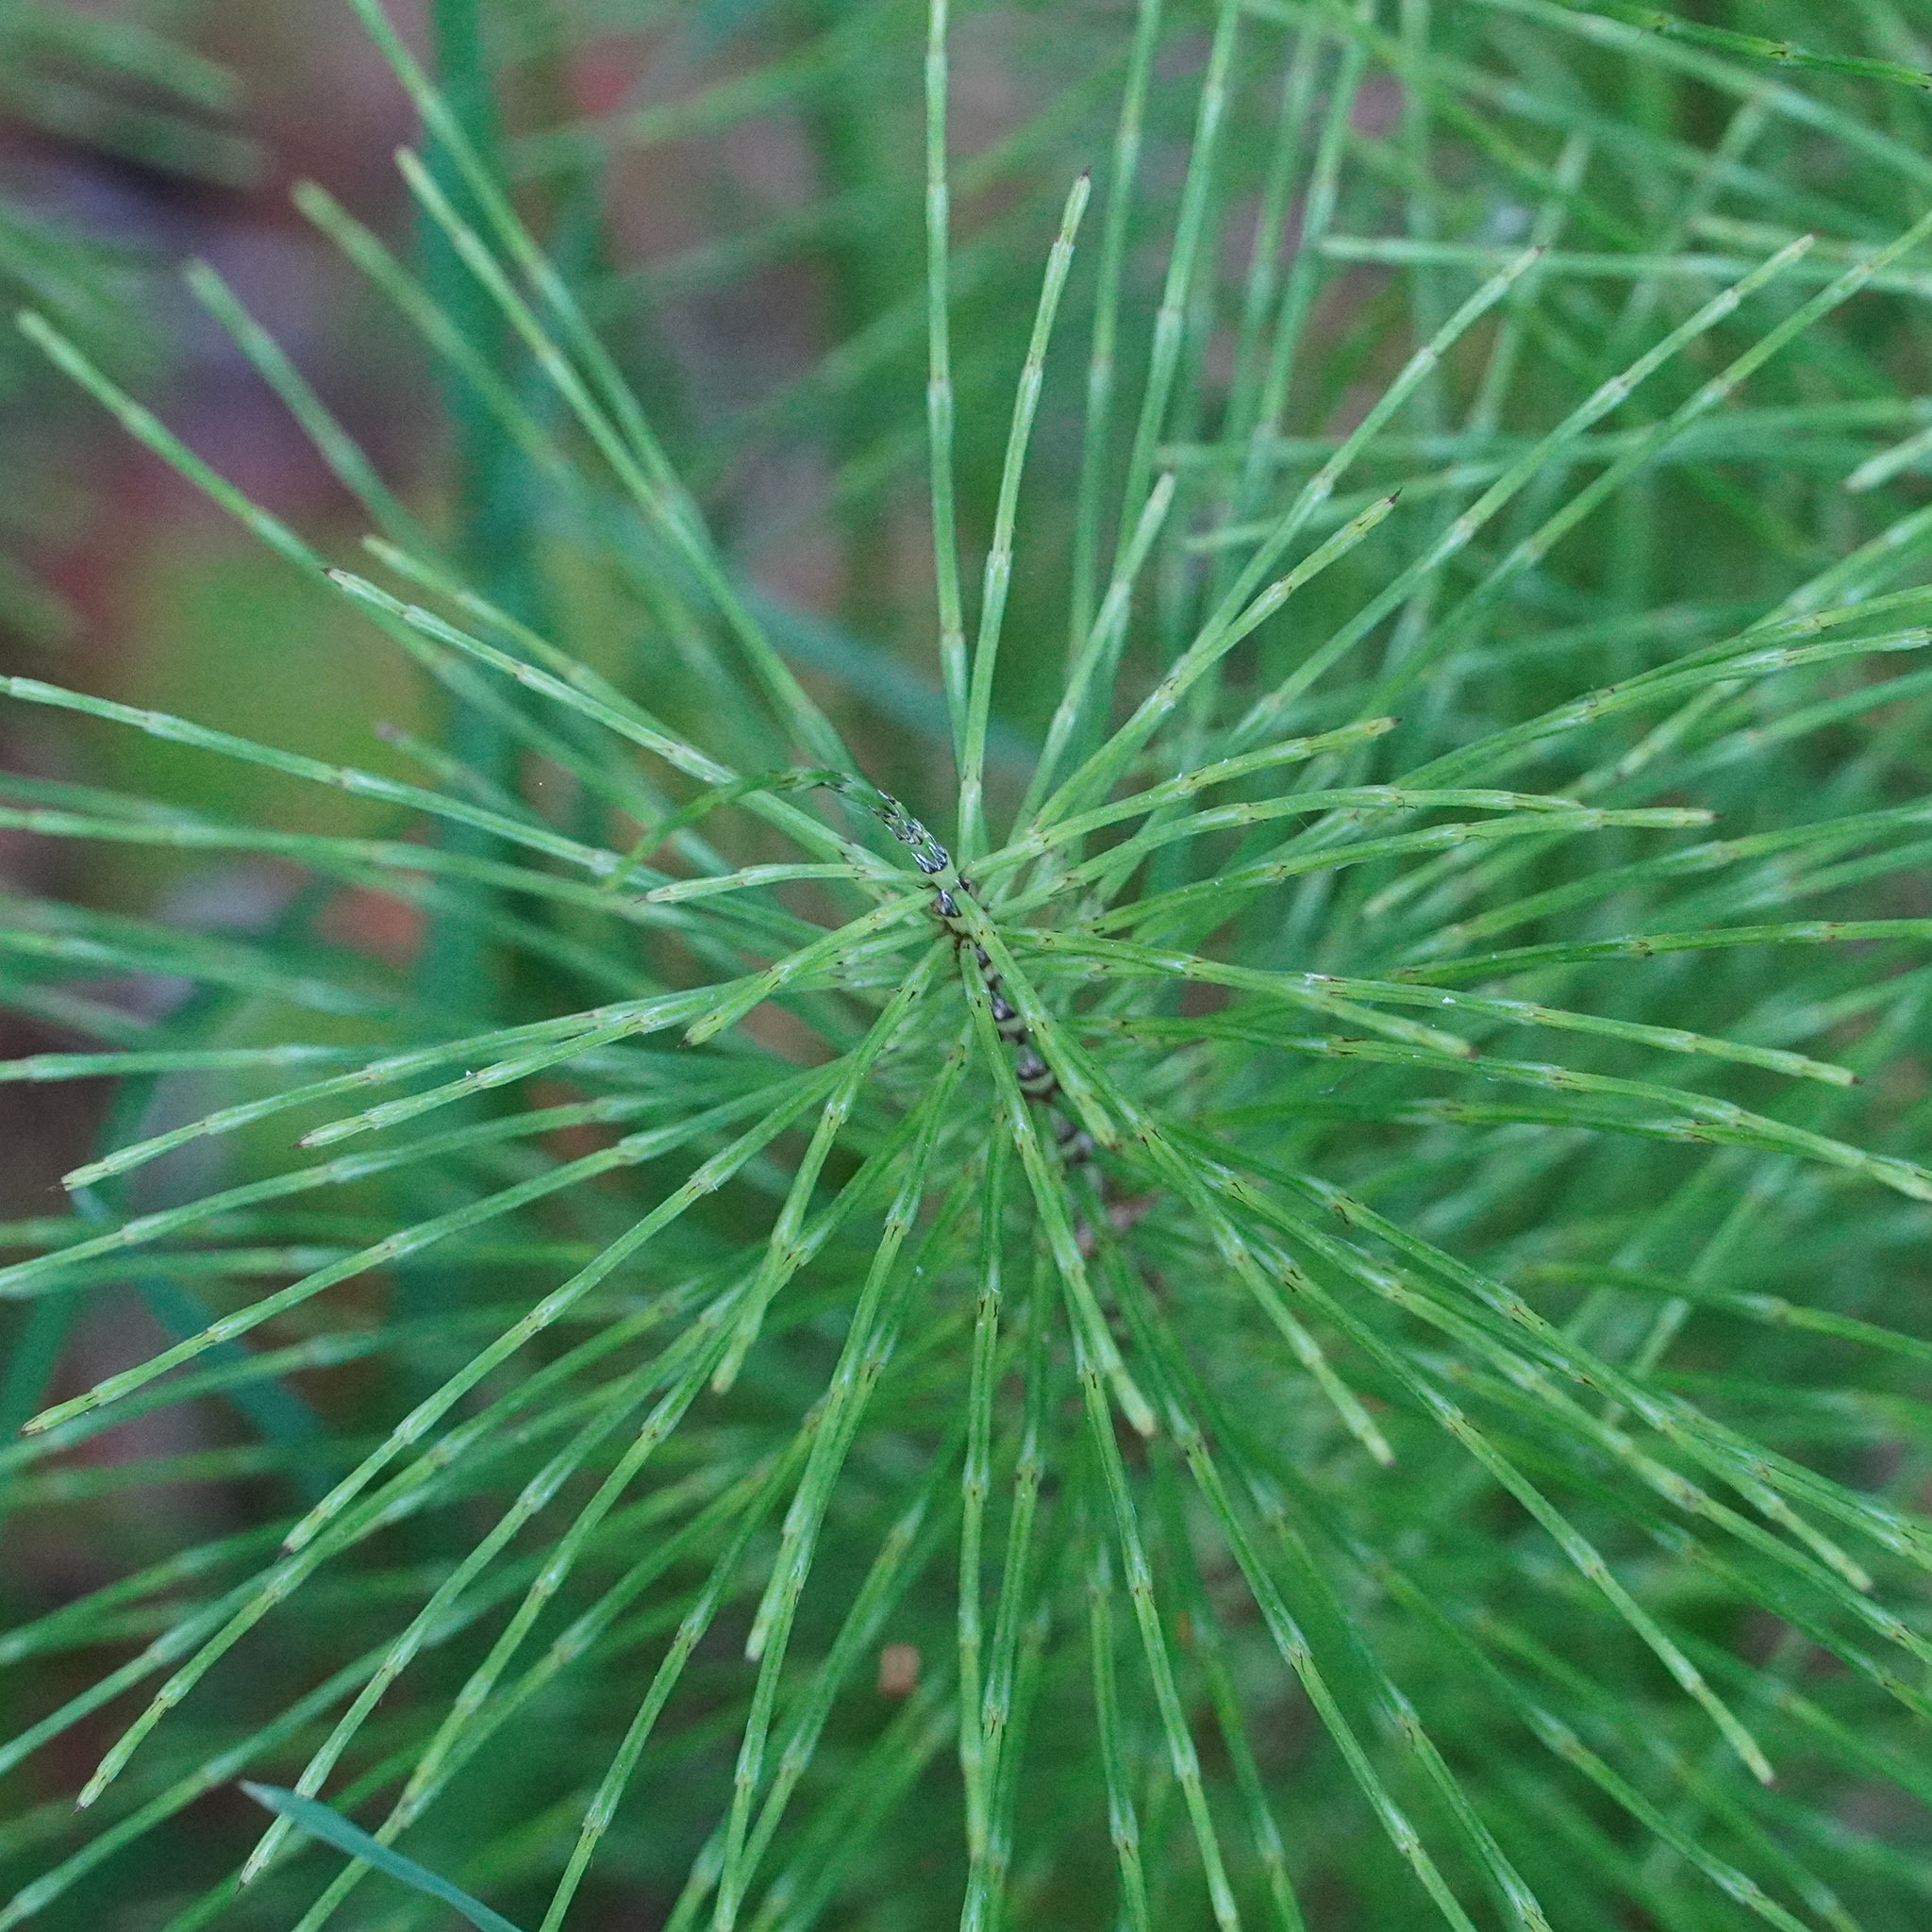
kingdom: Plantae
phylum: Tracheophyta
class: Polypodiopsida
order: Equisetales
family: Equisetaceae
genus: Equisetum
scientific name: Equisetum telmateia
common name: Great horsetail
